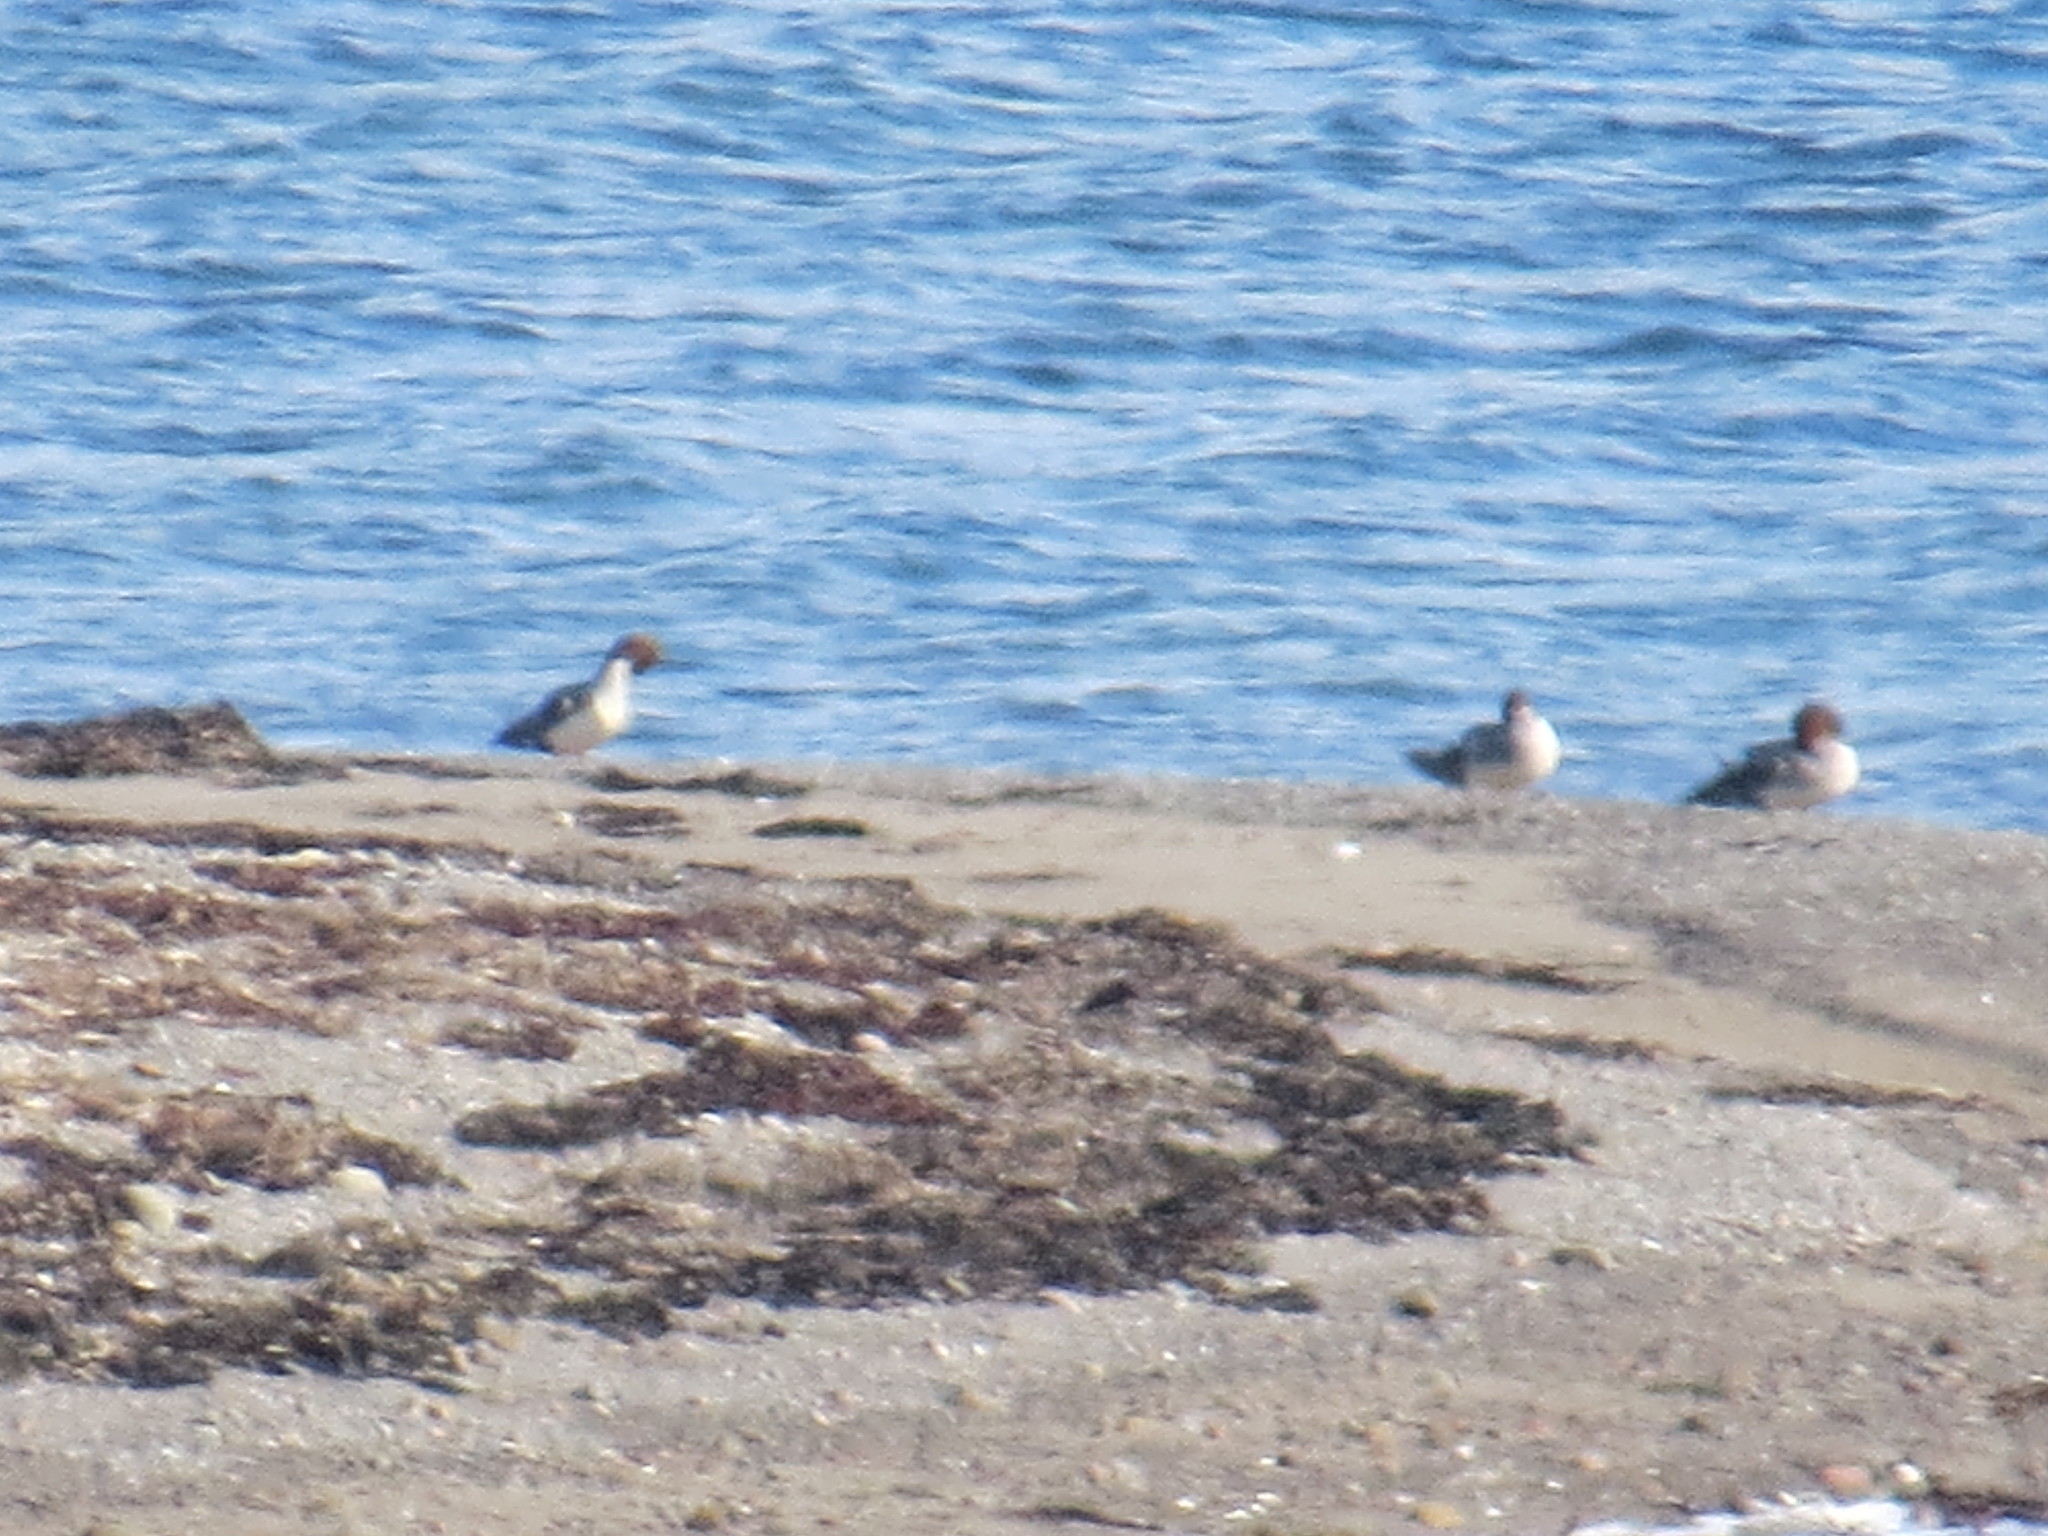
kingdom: Animalia
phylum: Chordata
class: Aves
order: Anseriformes
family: Anatidae
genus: Mergus
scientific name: Mergus merganser
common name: Common merganser
